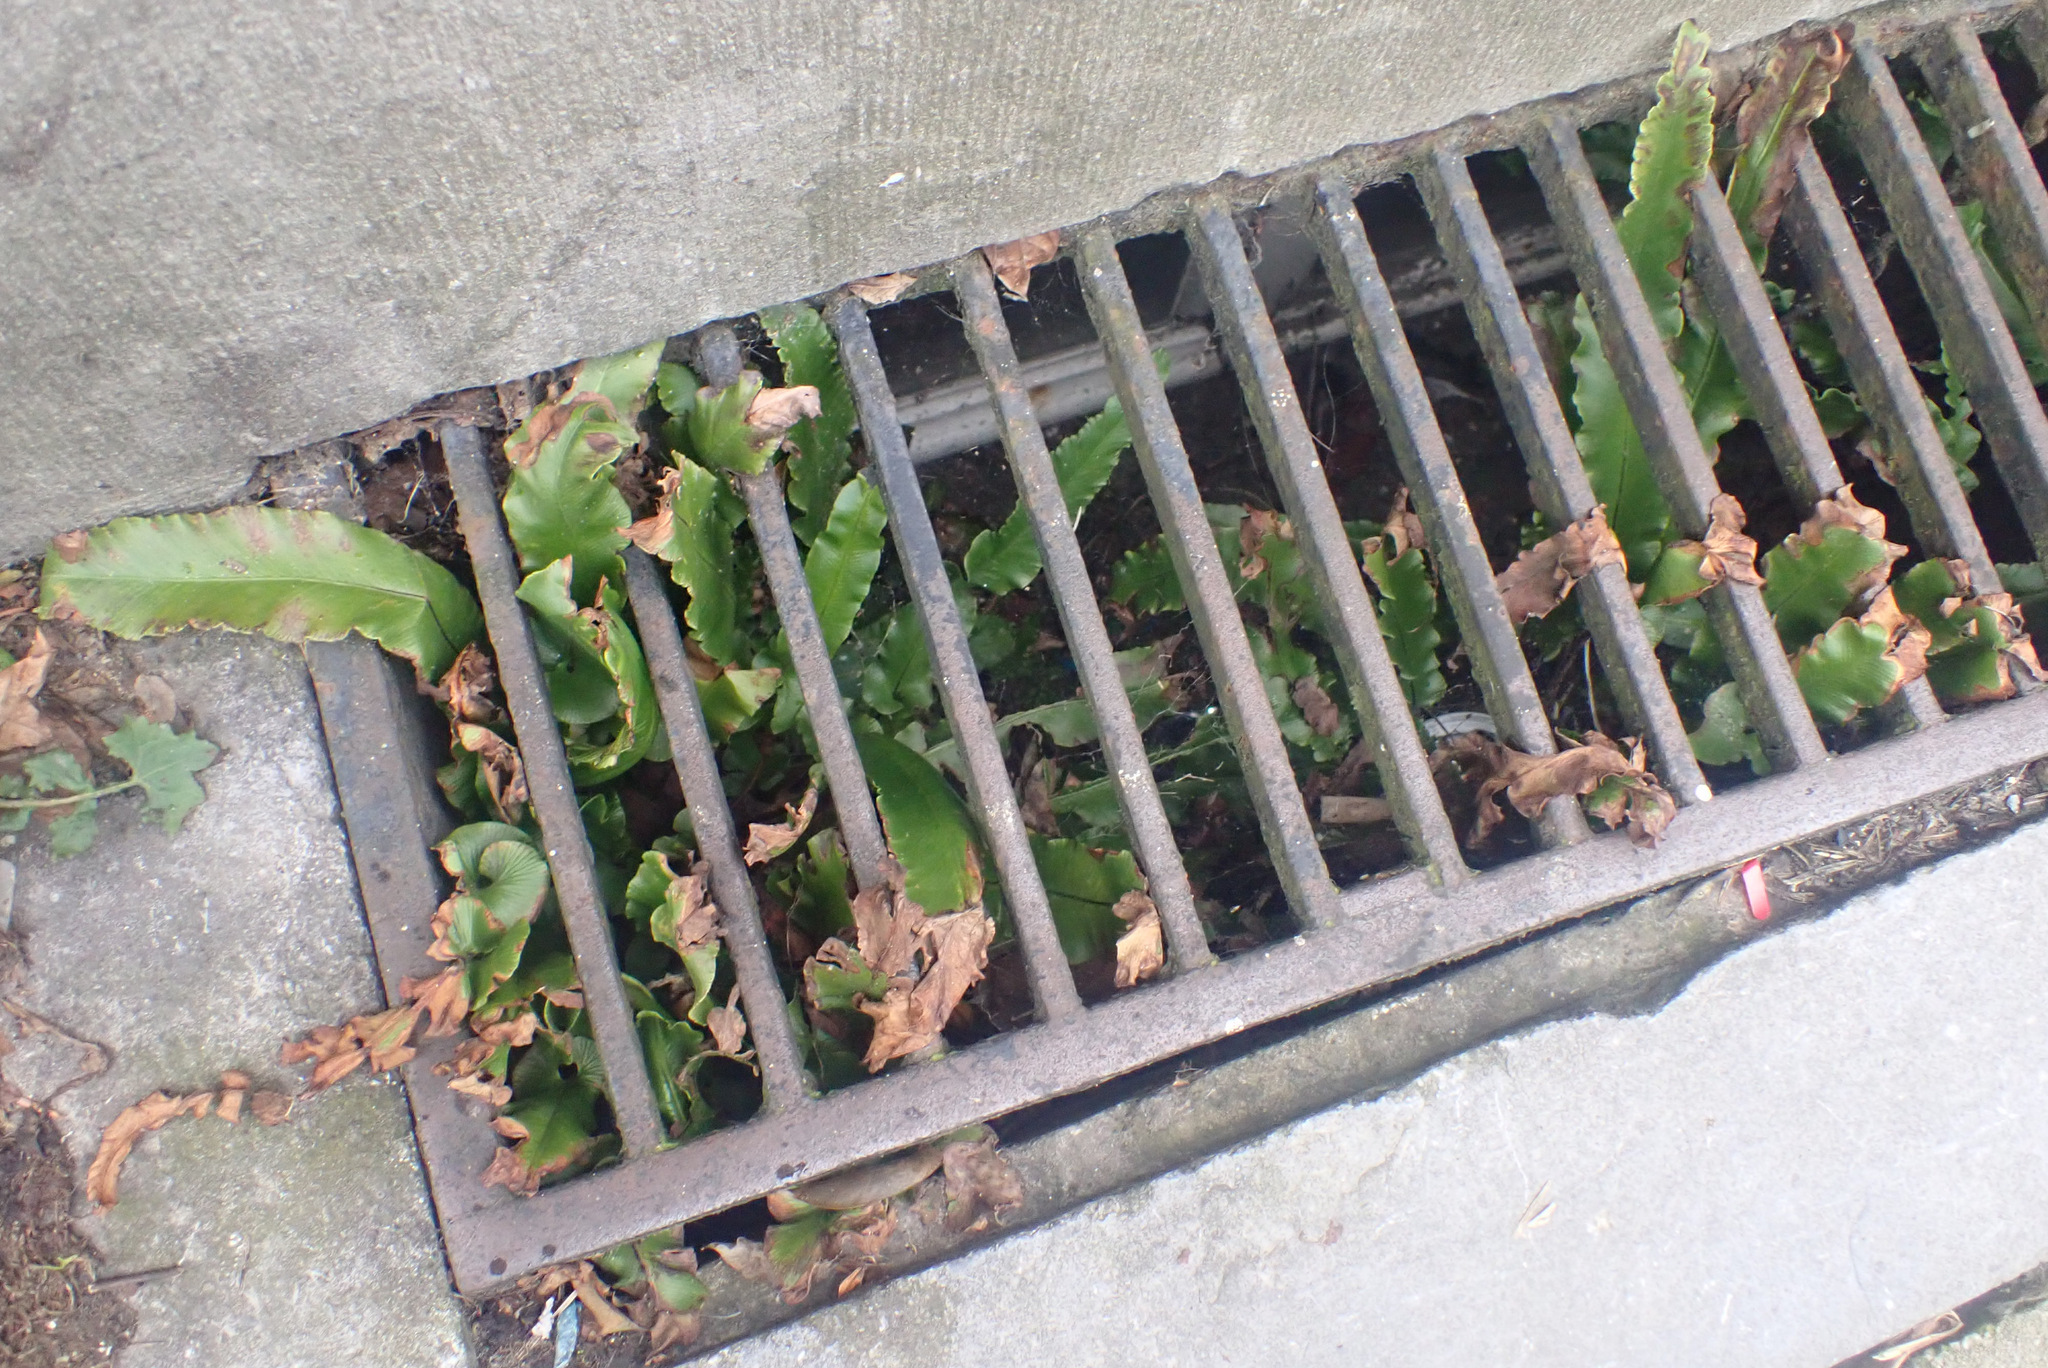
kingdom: Plantae
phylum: Tracheophyta
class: Polypodiopsida
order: Polypodiales
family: Aspleniaceae
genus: Asplenium
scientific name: Asplenium scolopendrium
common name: Hart's-tongue fern
